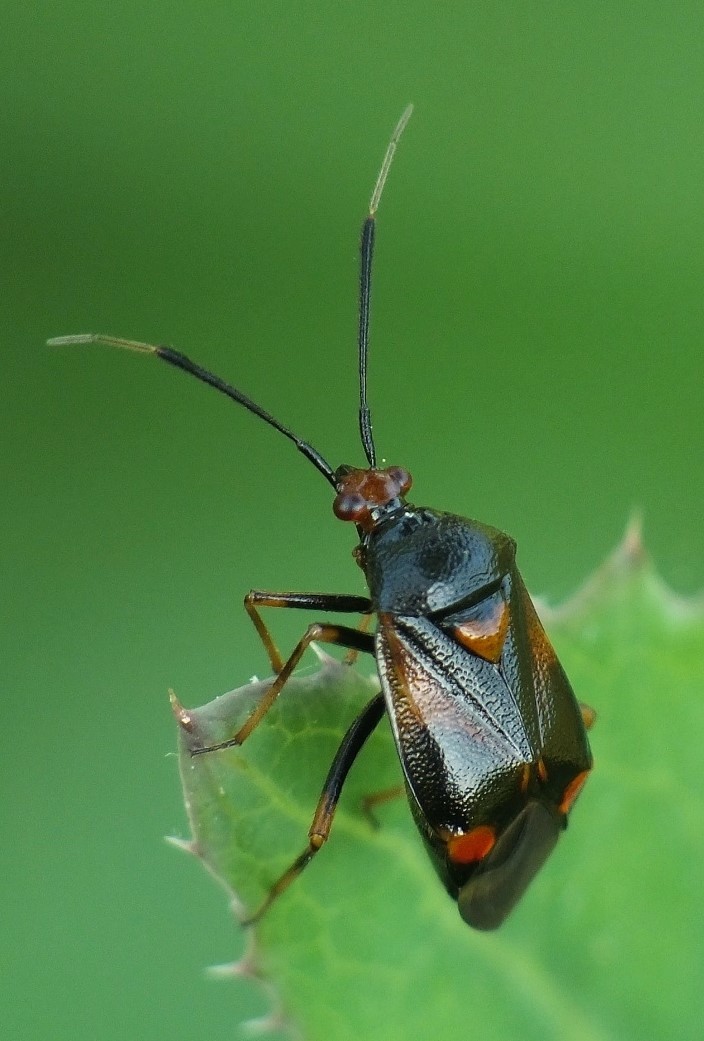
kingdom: Animalia
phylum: Arthropoda
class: Insecta
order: Hemiptera
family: Miridae
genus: Deraeocoris
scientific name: Deraeocoris ruber
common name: Plant bug
